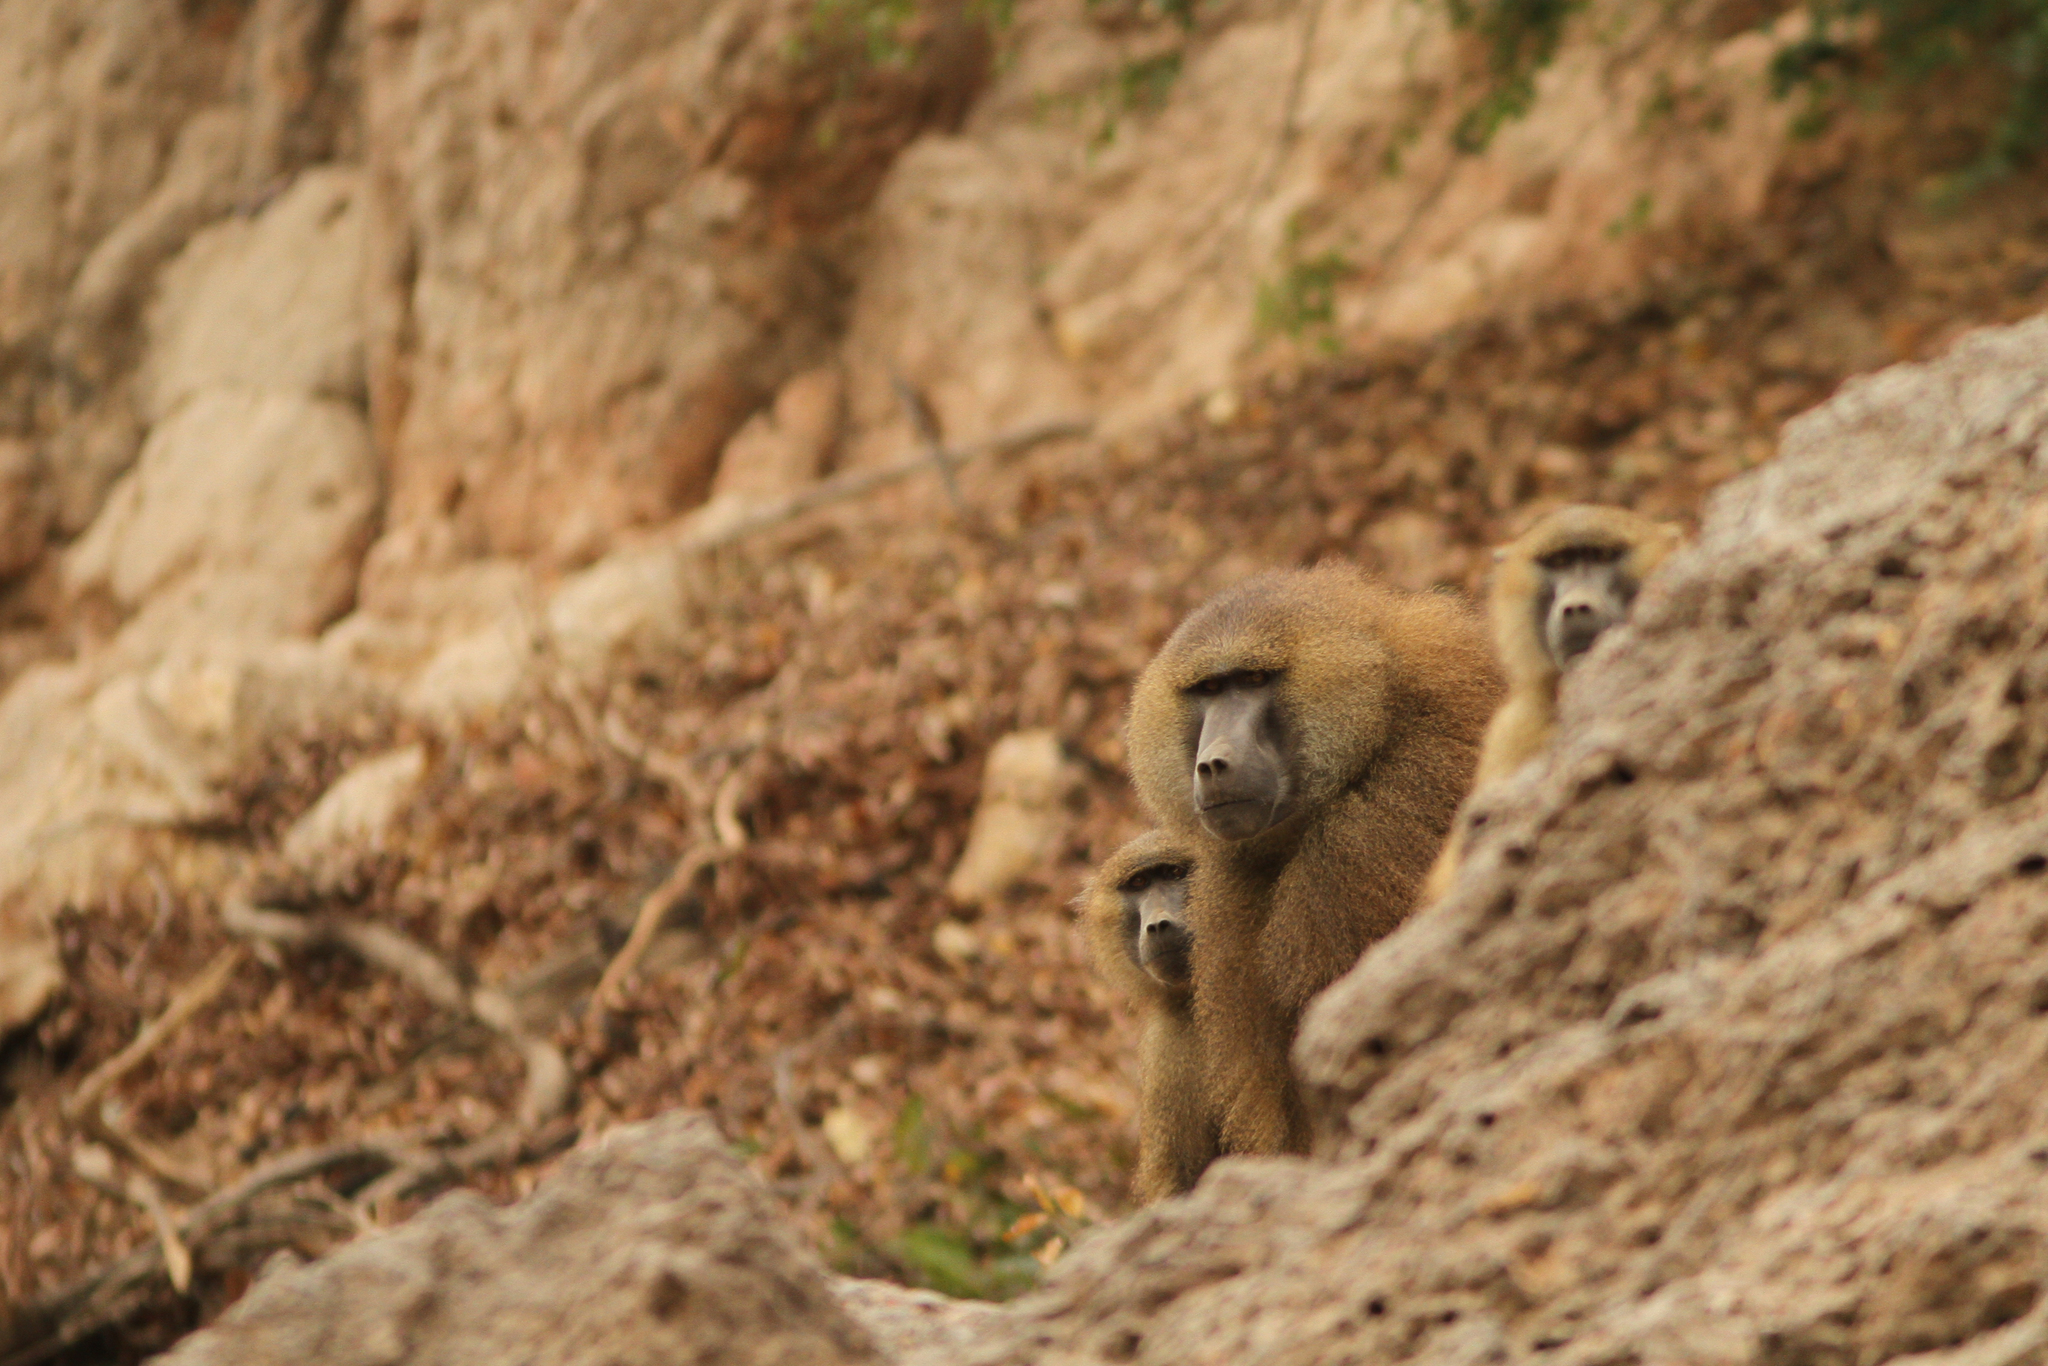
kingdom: Animalia
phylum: Chordata
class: Mammalia
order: Primates
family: Cercopithecidae
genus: Papio
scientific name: Papio papio
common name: Guinea baboon
